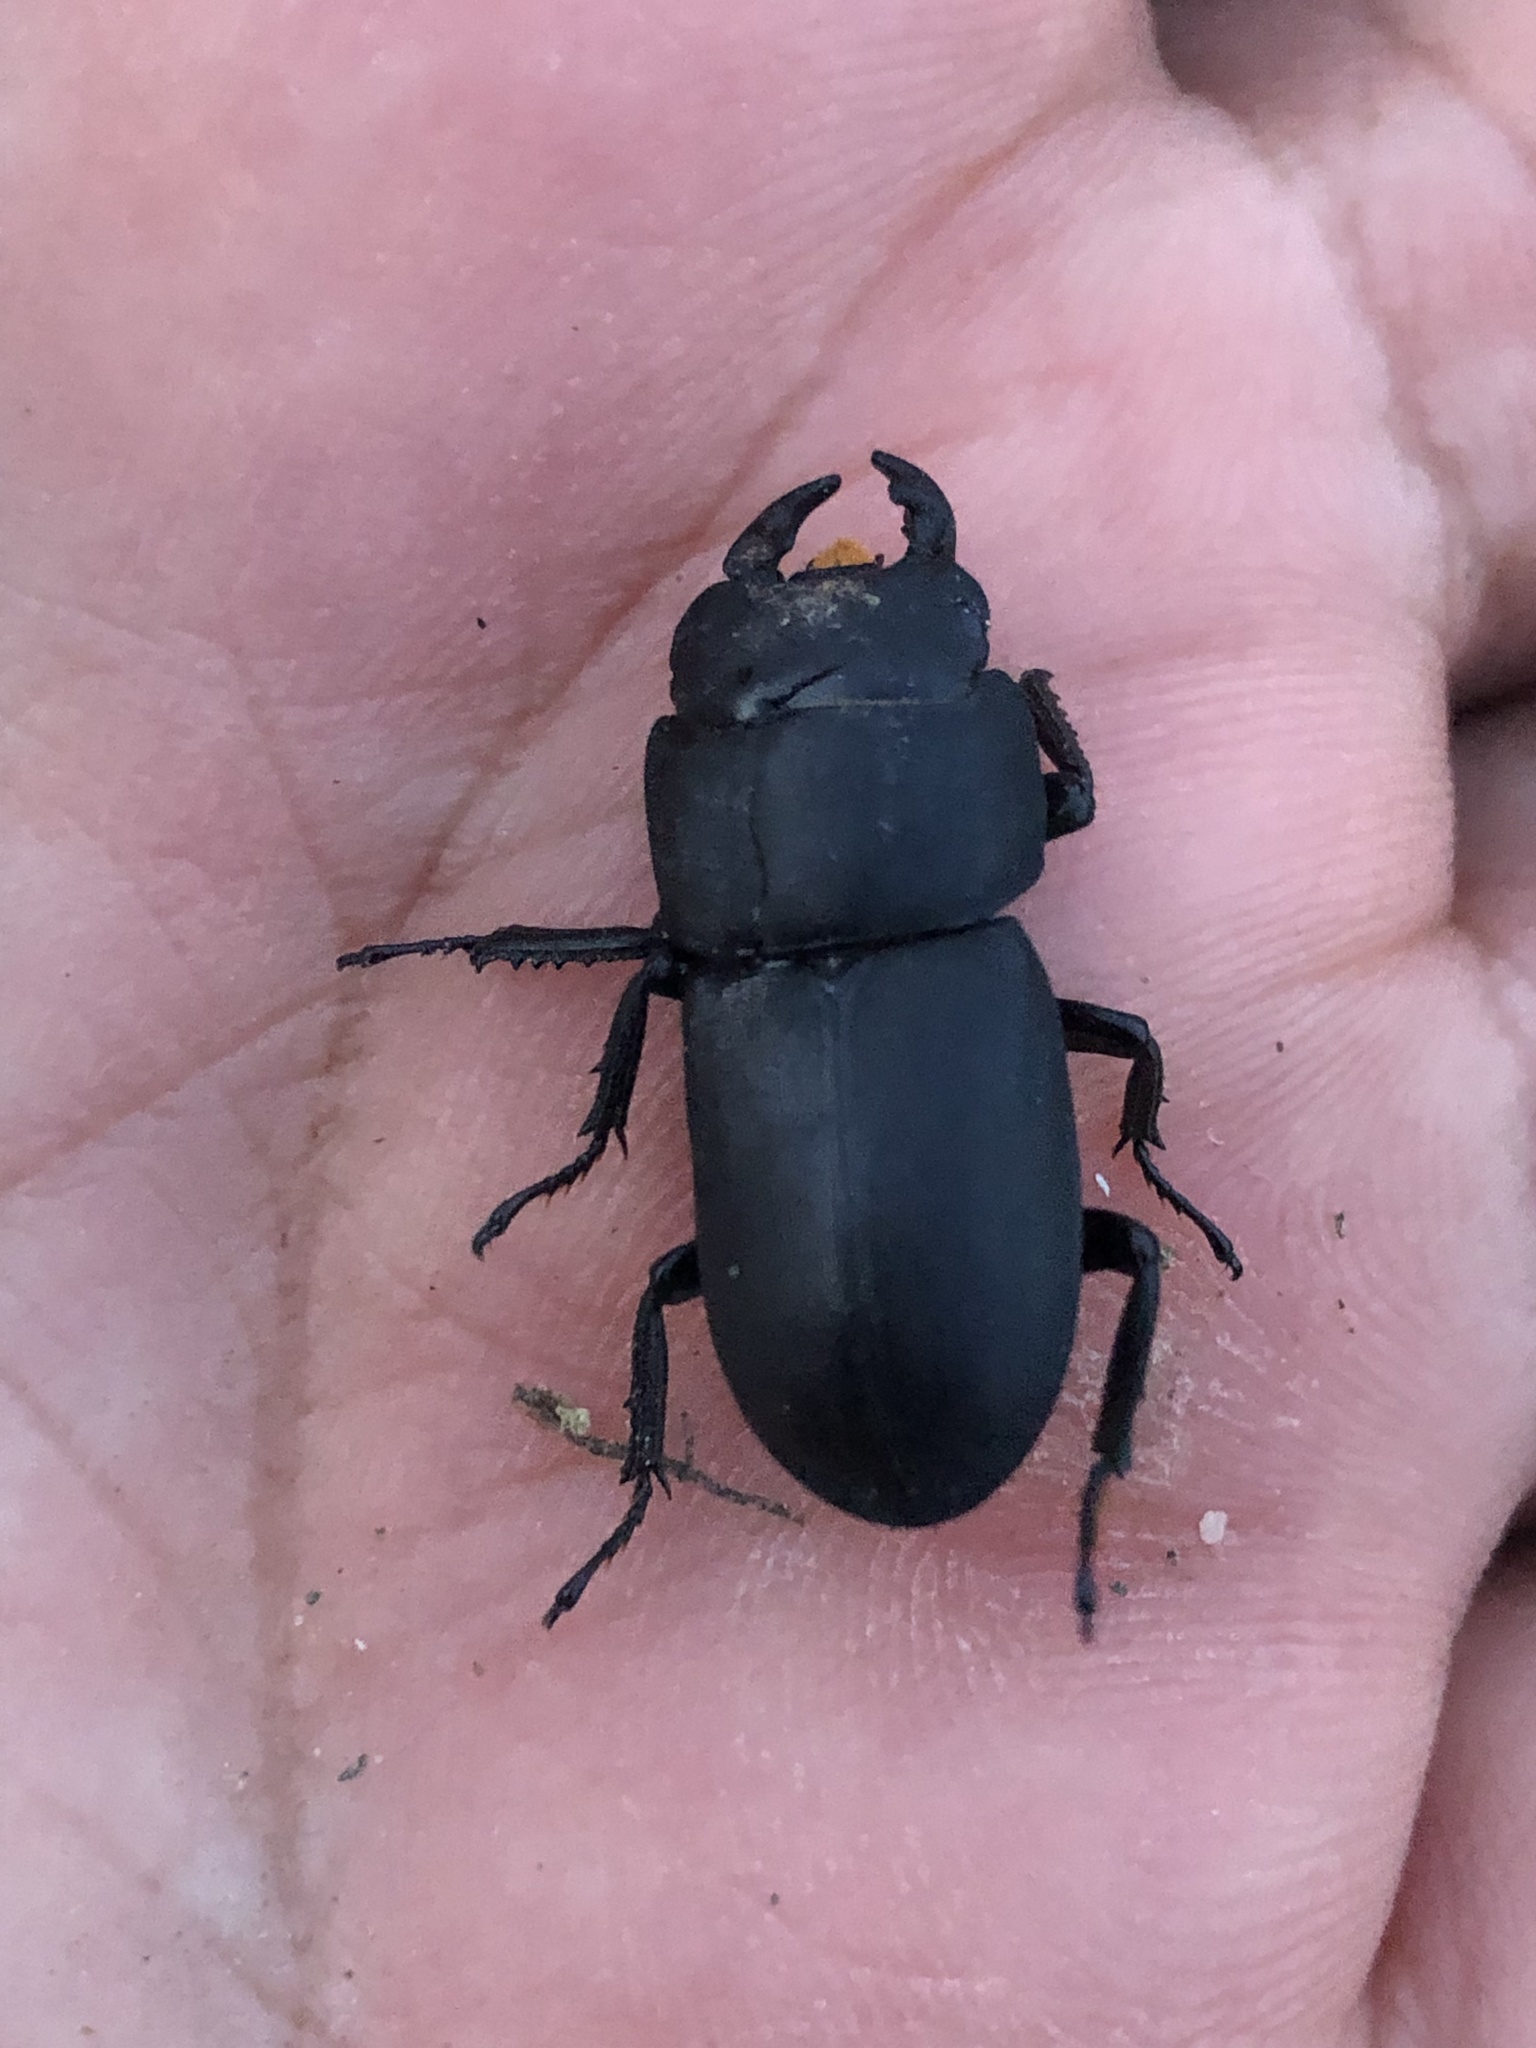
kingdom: Animalia
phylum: Arthropoda
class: Insecta
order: Coleoptera
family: Lucanidae
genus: Dorcus
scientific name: Dorcus parallelipipedus
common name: Lesser stag beetle
